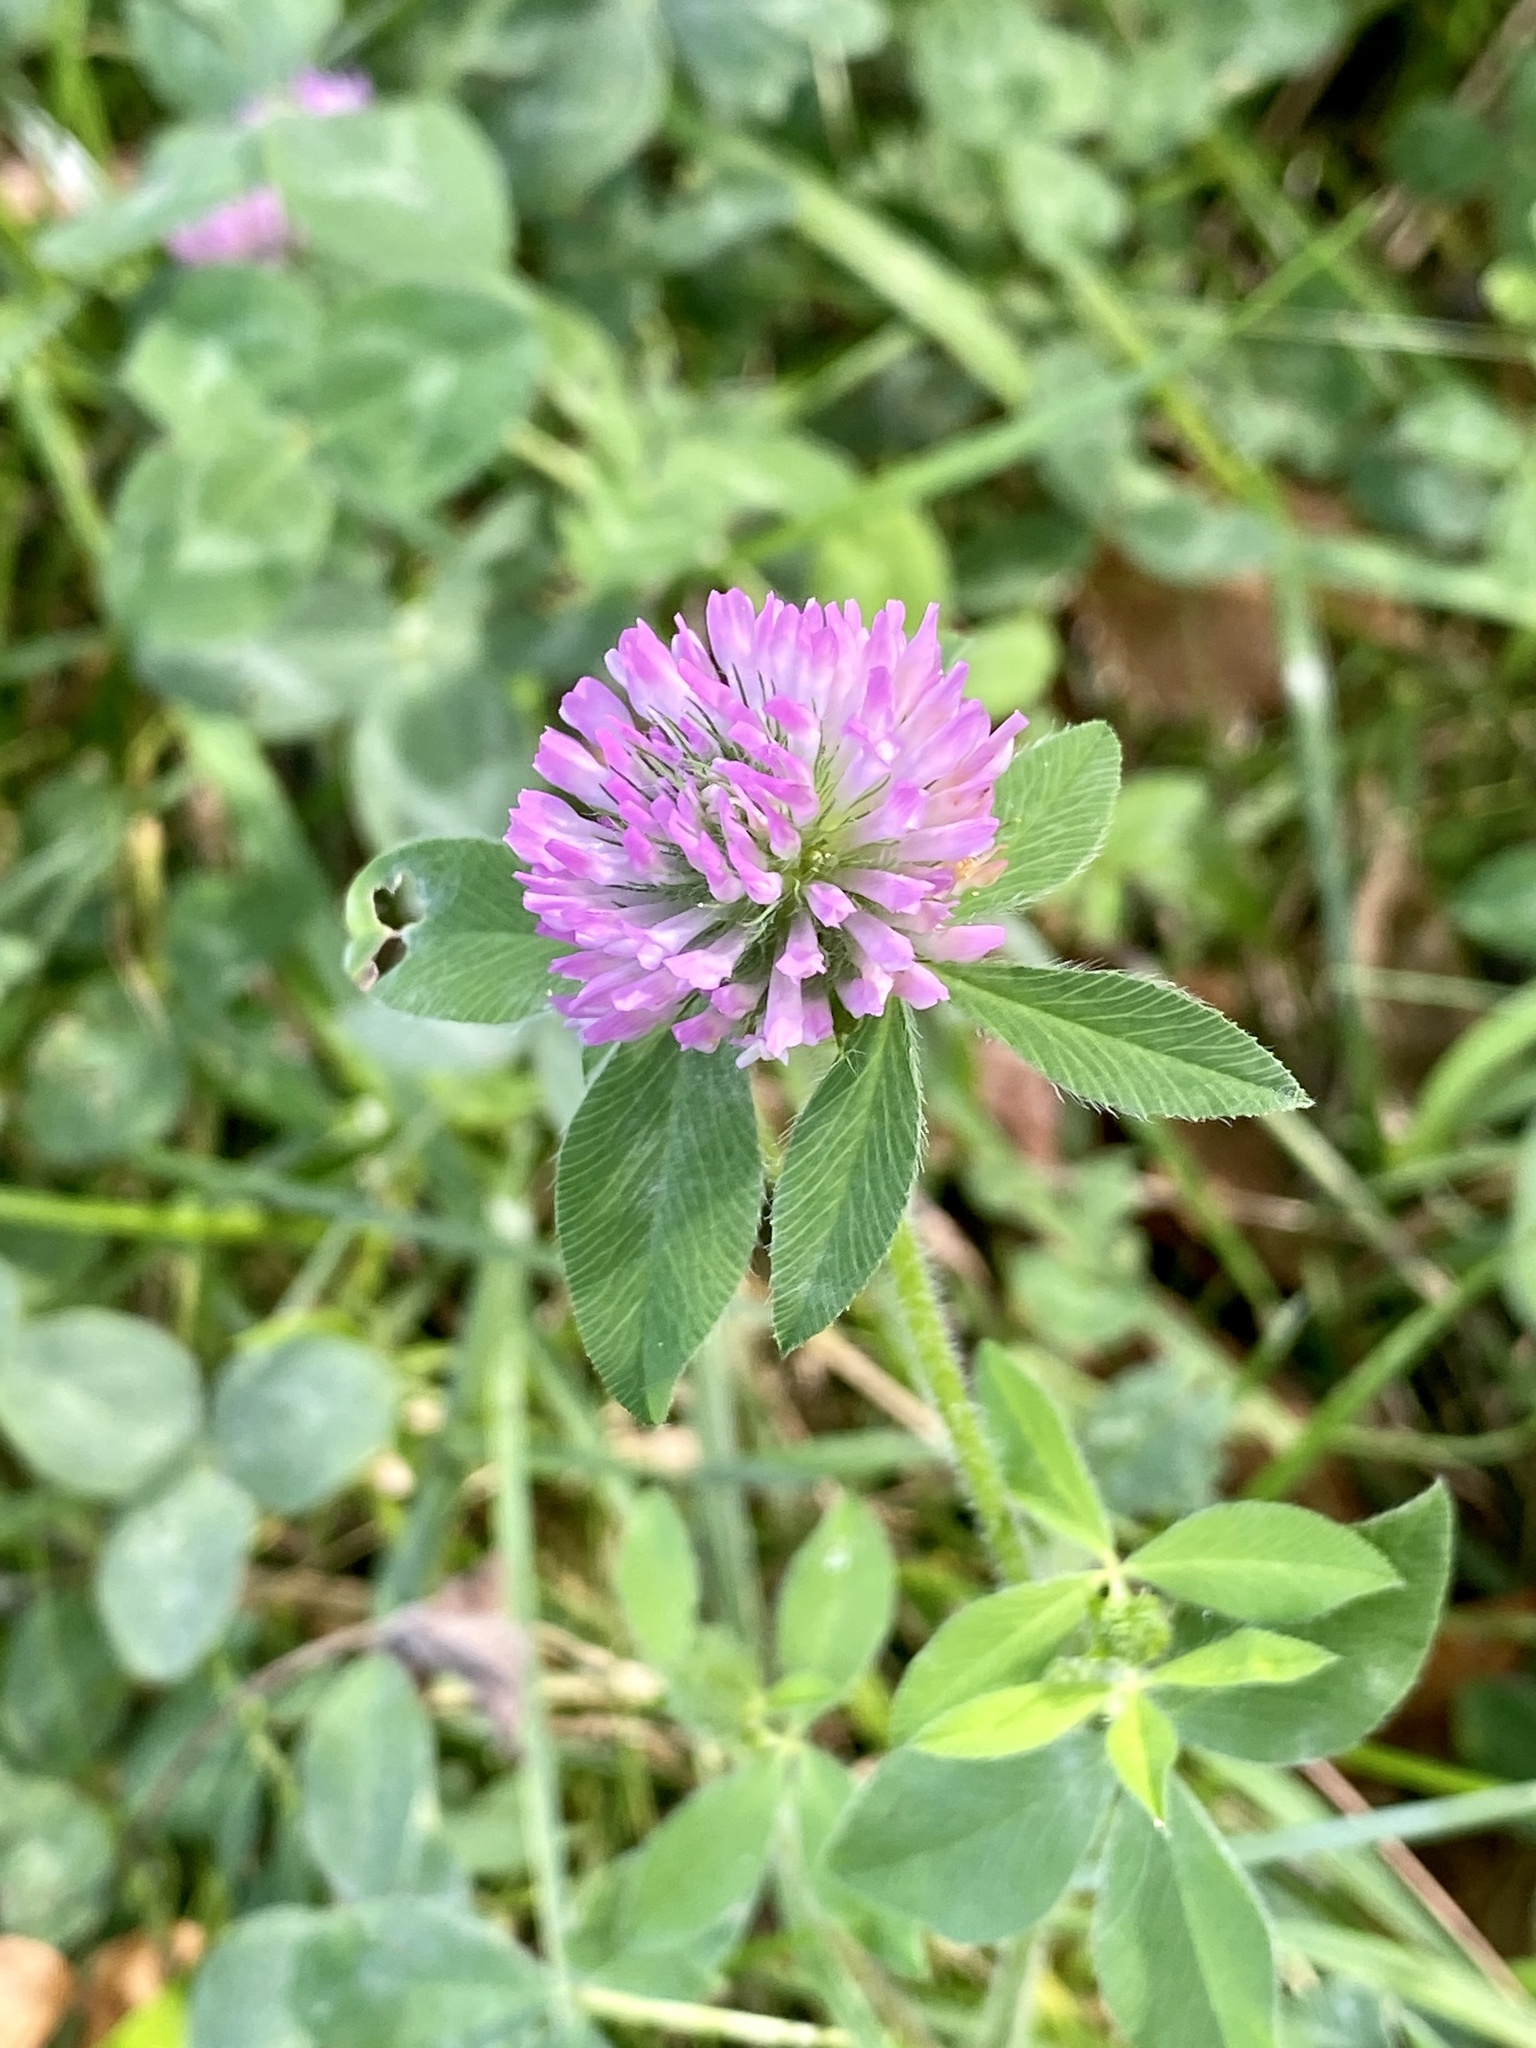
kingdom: Plantae
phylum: Tracheophyta
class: Magnoliopsida
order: Fabales
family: Fabaceae
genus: Trifolium
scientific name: Trifolium pratense
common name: Red clover
